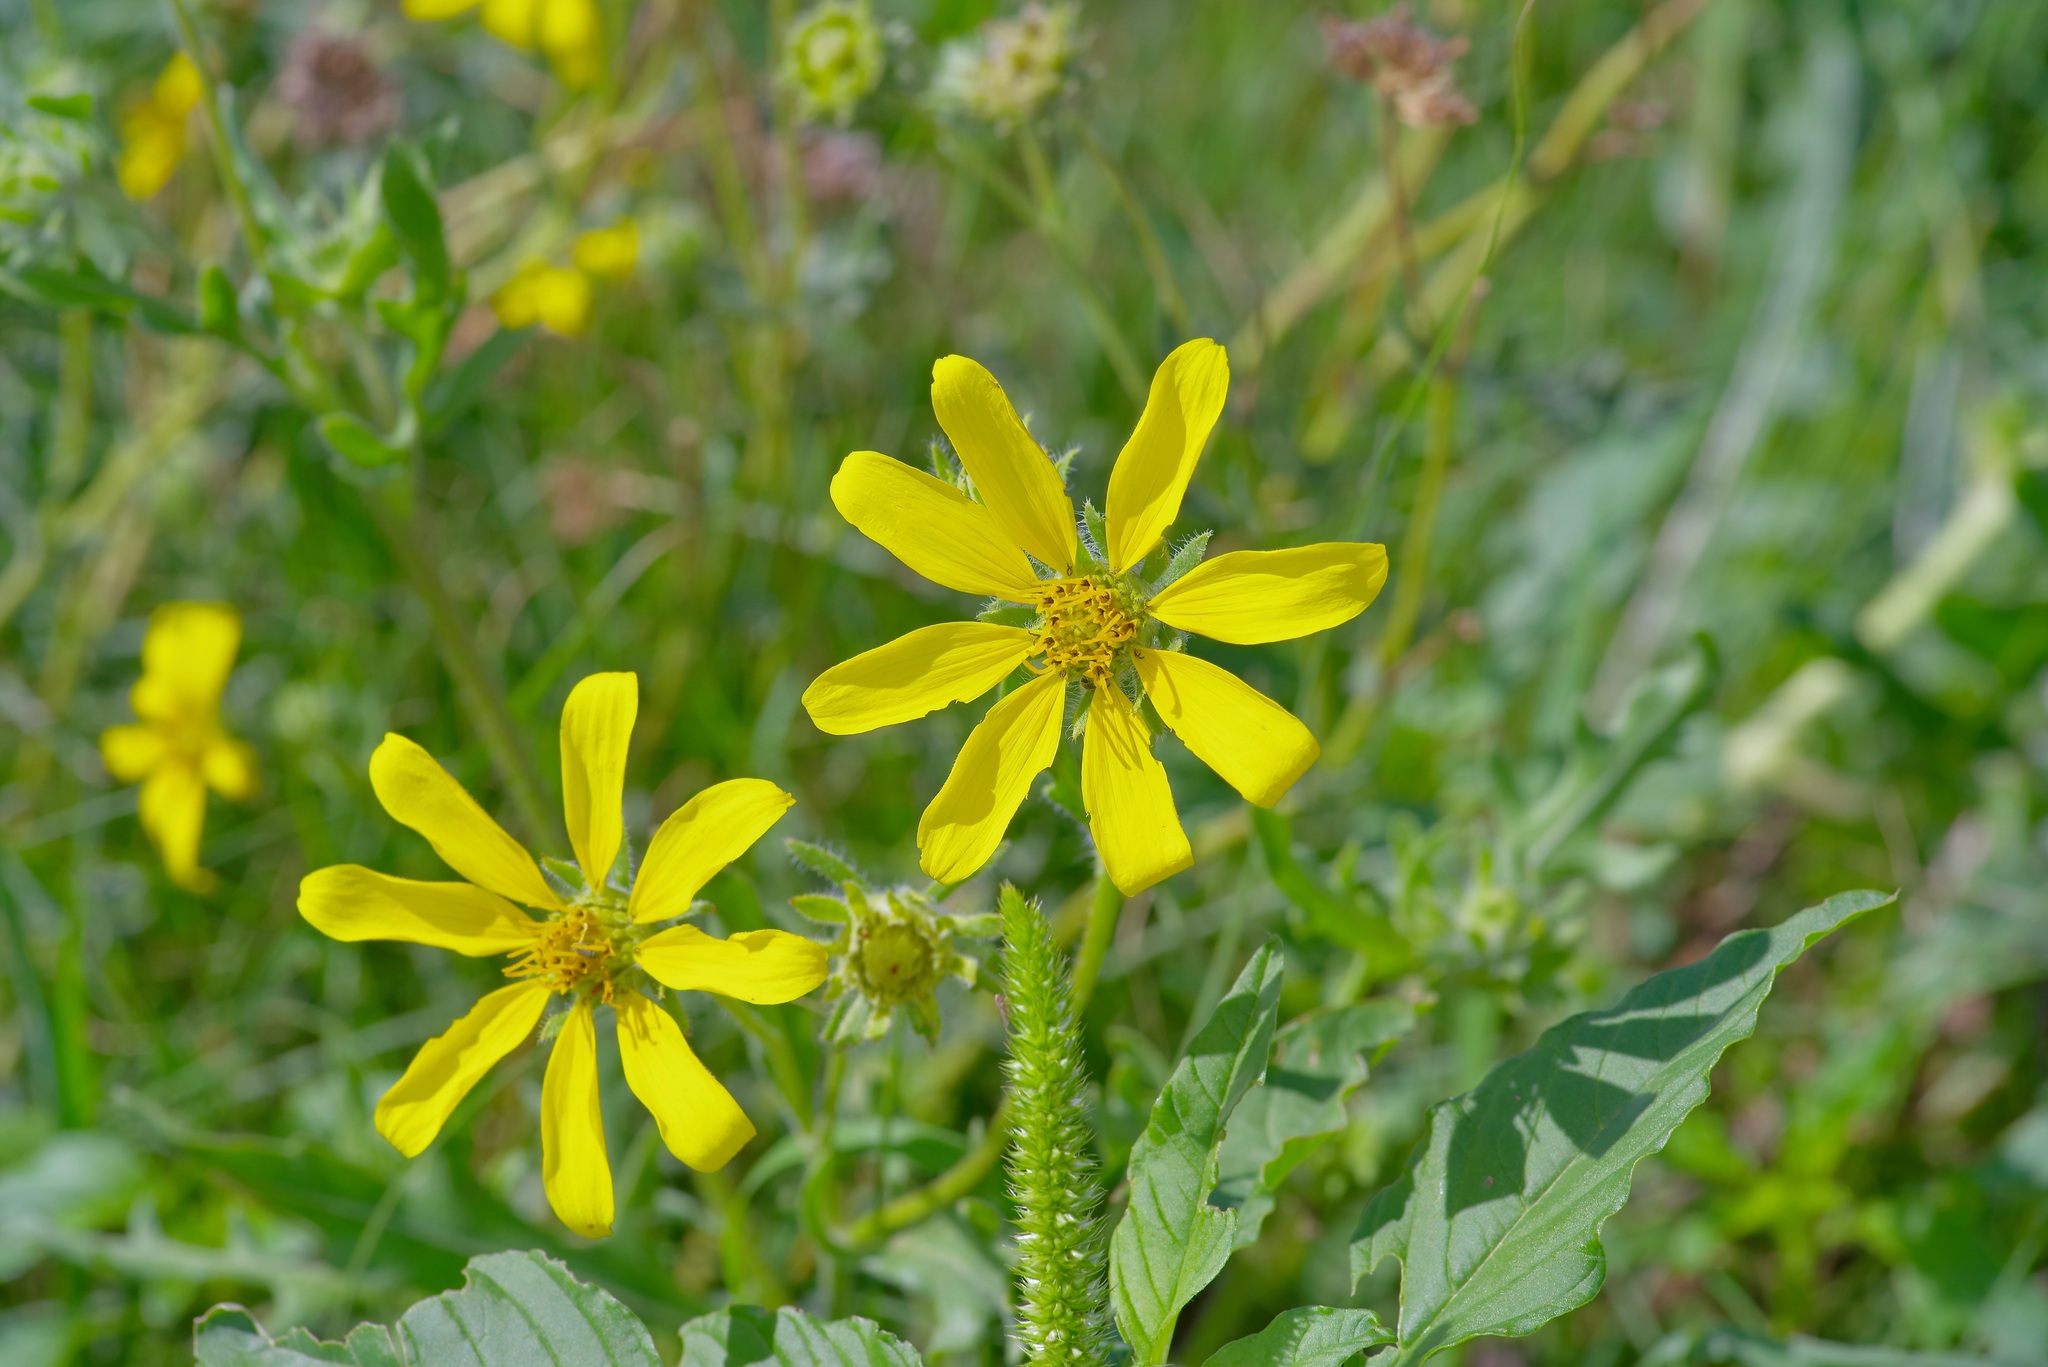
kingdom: Plantae
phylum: Tracheophyta
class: Magnoliopsida
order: Asterales
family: Asteraceae
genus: Engelmannia
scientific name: Engelmannia peristenia
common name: Engelmann's daisy
